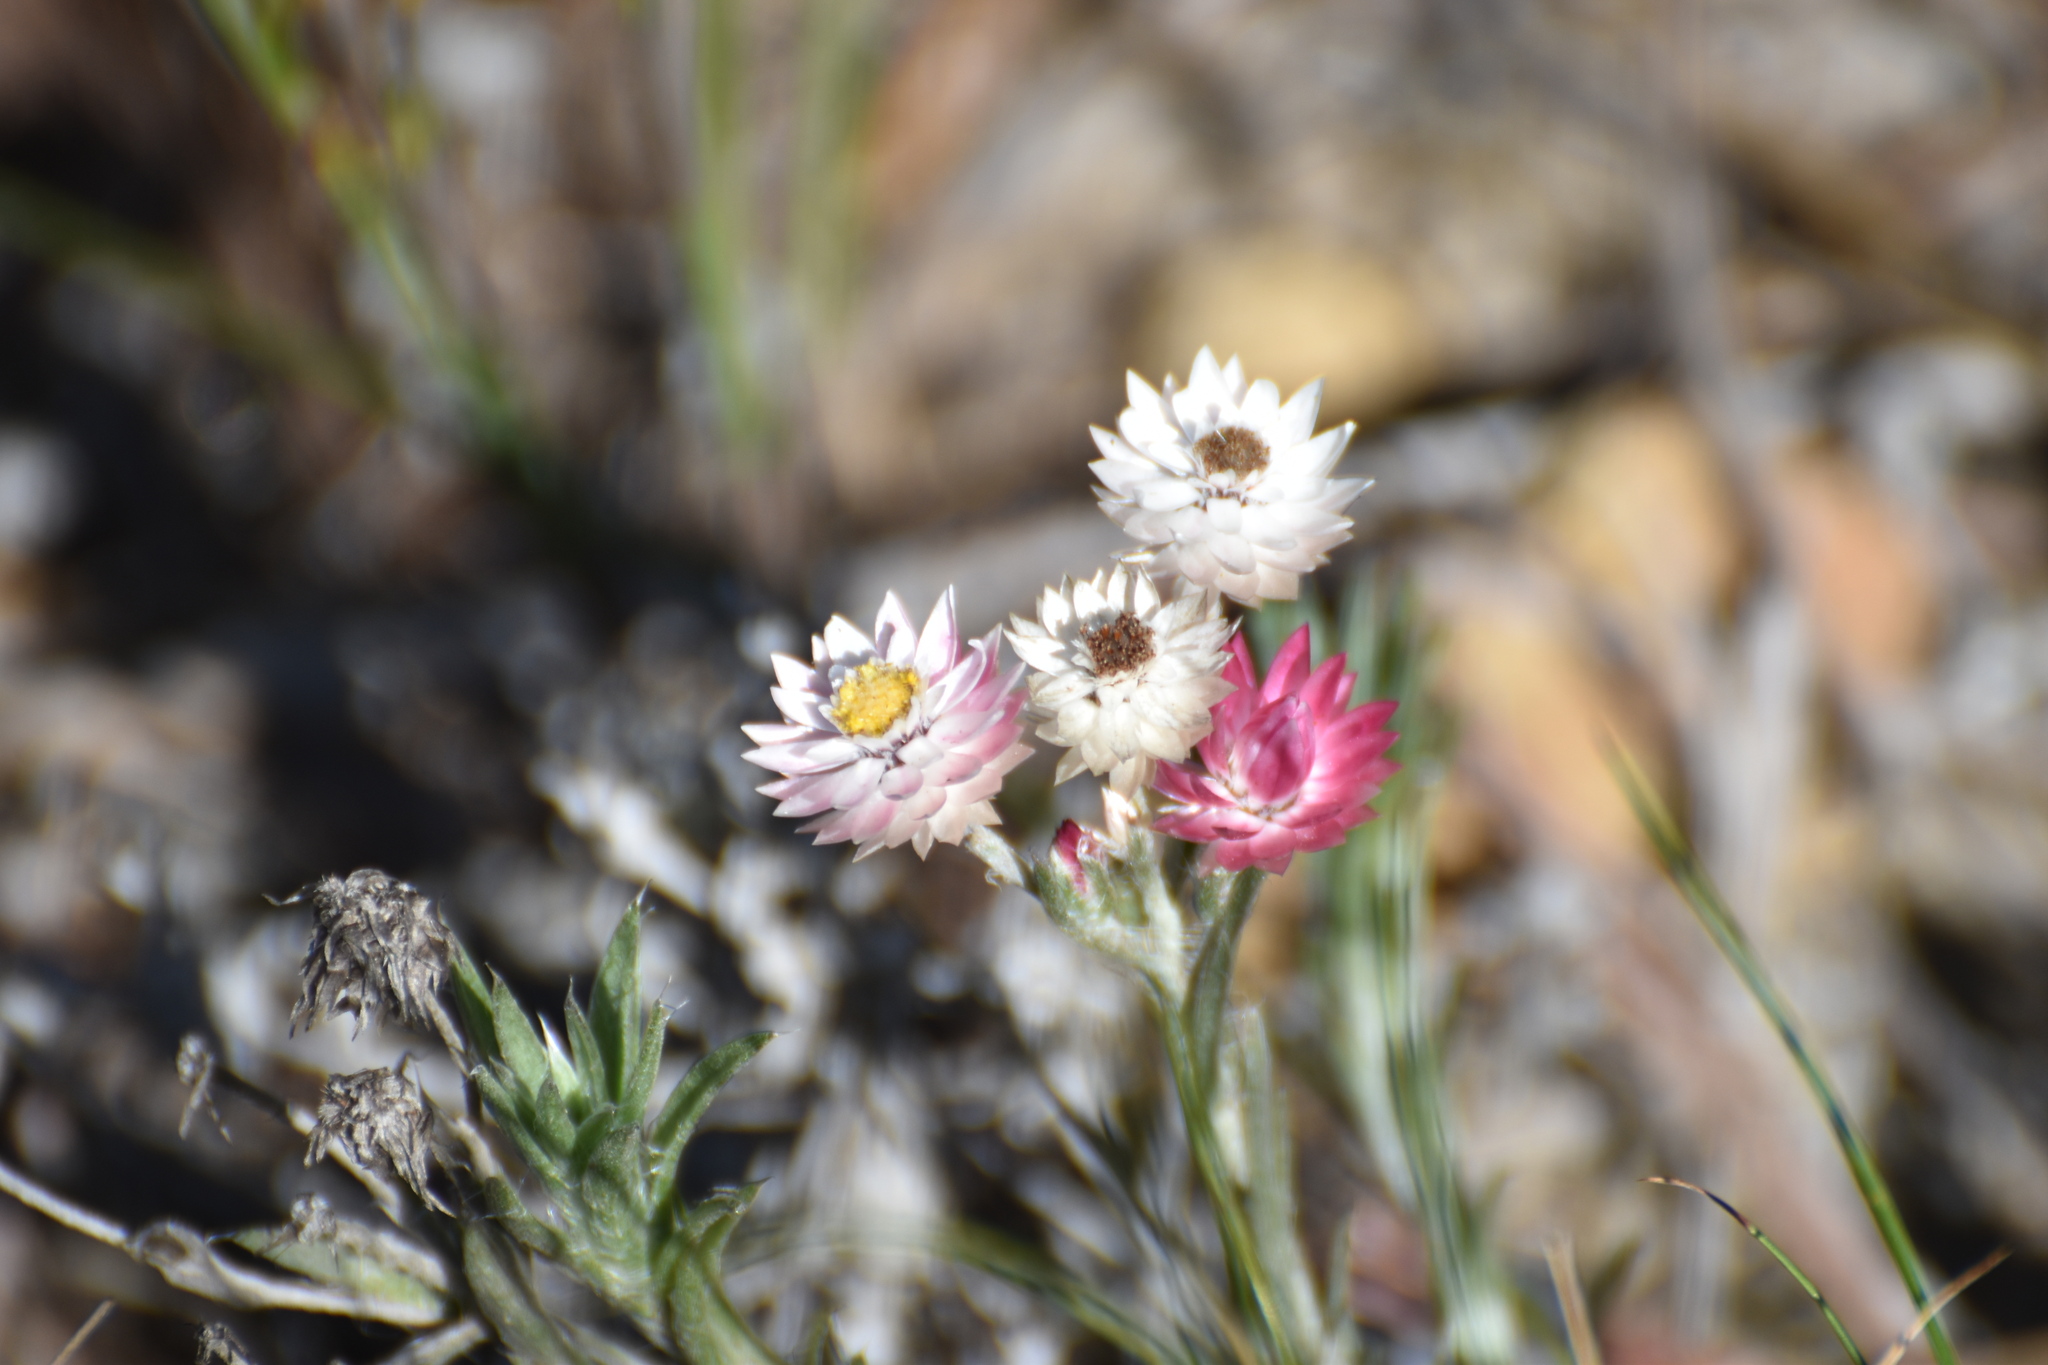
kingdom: Plantae
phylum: Tracheophyta
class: Magnoliopsida
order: Asterales
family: Asteraceae
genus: Achyranthemum
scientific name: Achyranthemum paniculatum
